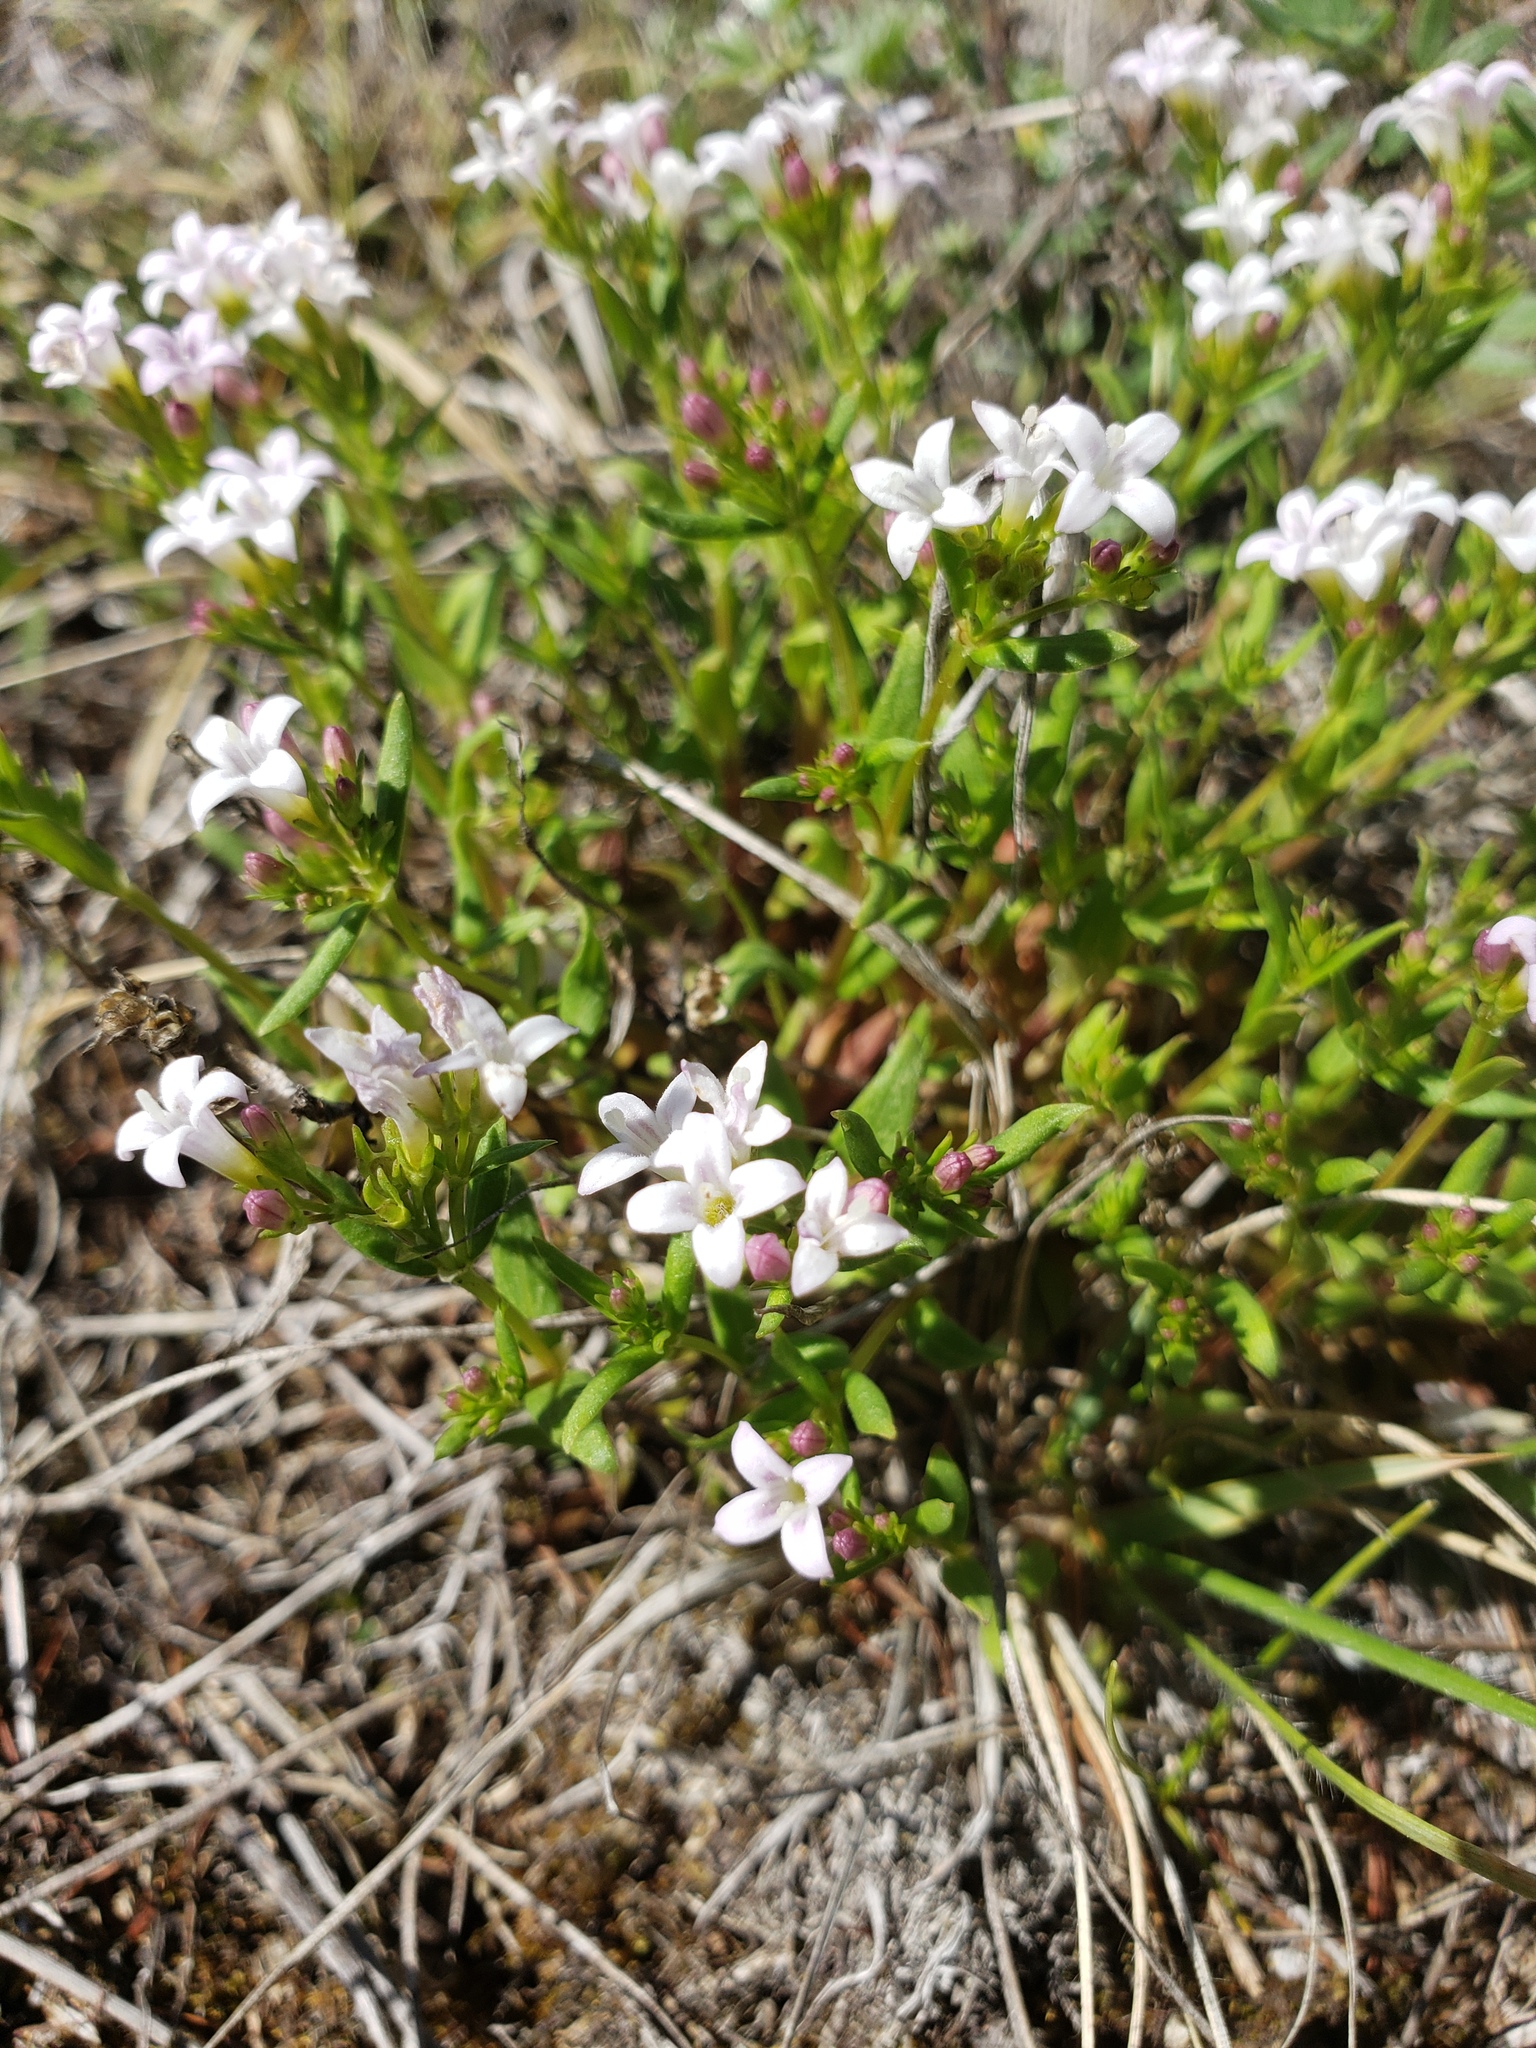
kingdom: Plantae
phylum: Tracheophyta
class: Magnoliopsida
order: Gentianales
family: Rubiaceae
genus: Houstonia
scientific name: Houstonia longifolia
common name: Long-leaved bluets
